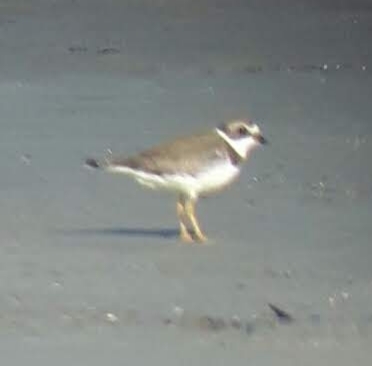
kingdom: Animalia
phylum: Chordata
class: Aves
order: Charadriiformes
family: Charadriidae
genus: Charadrius
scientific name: Charadrius semipalmatus
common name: Semipalmated plover
